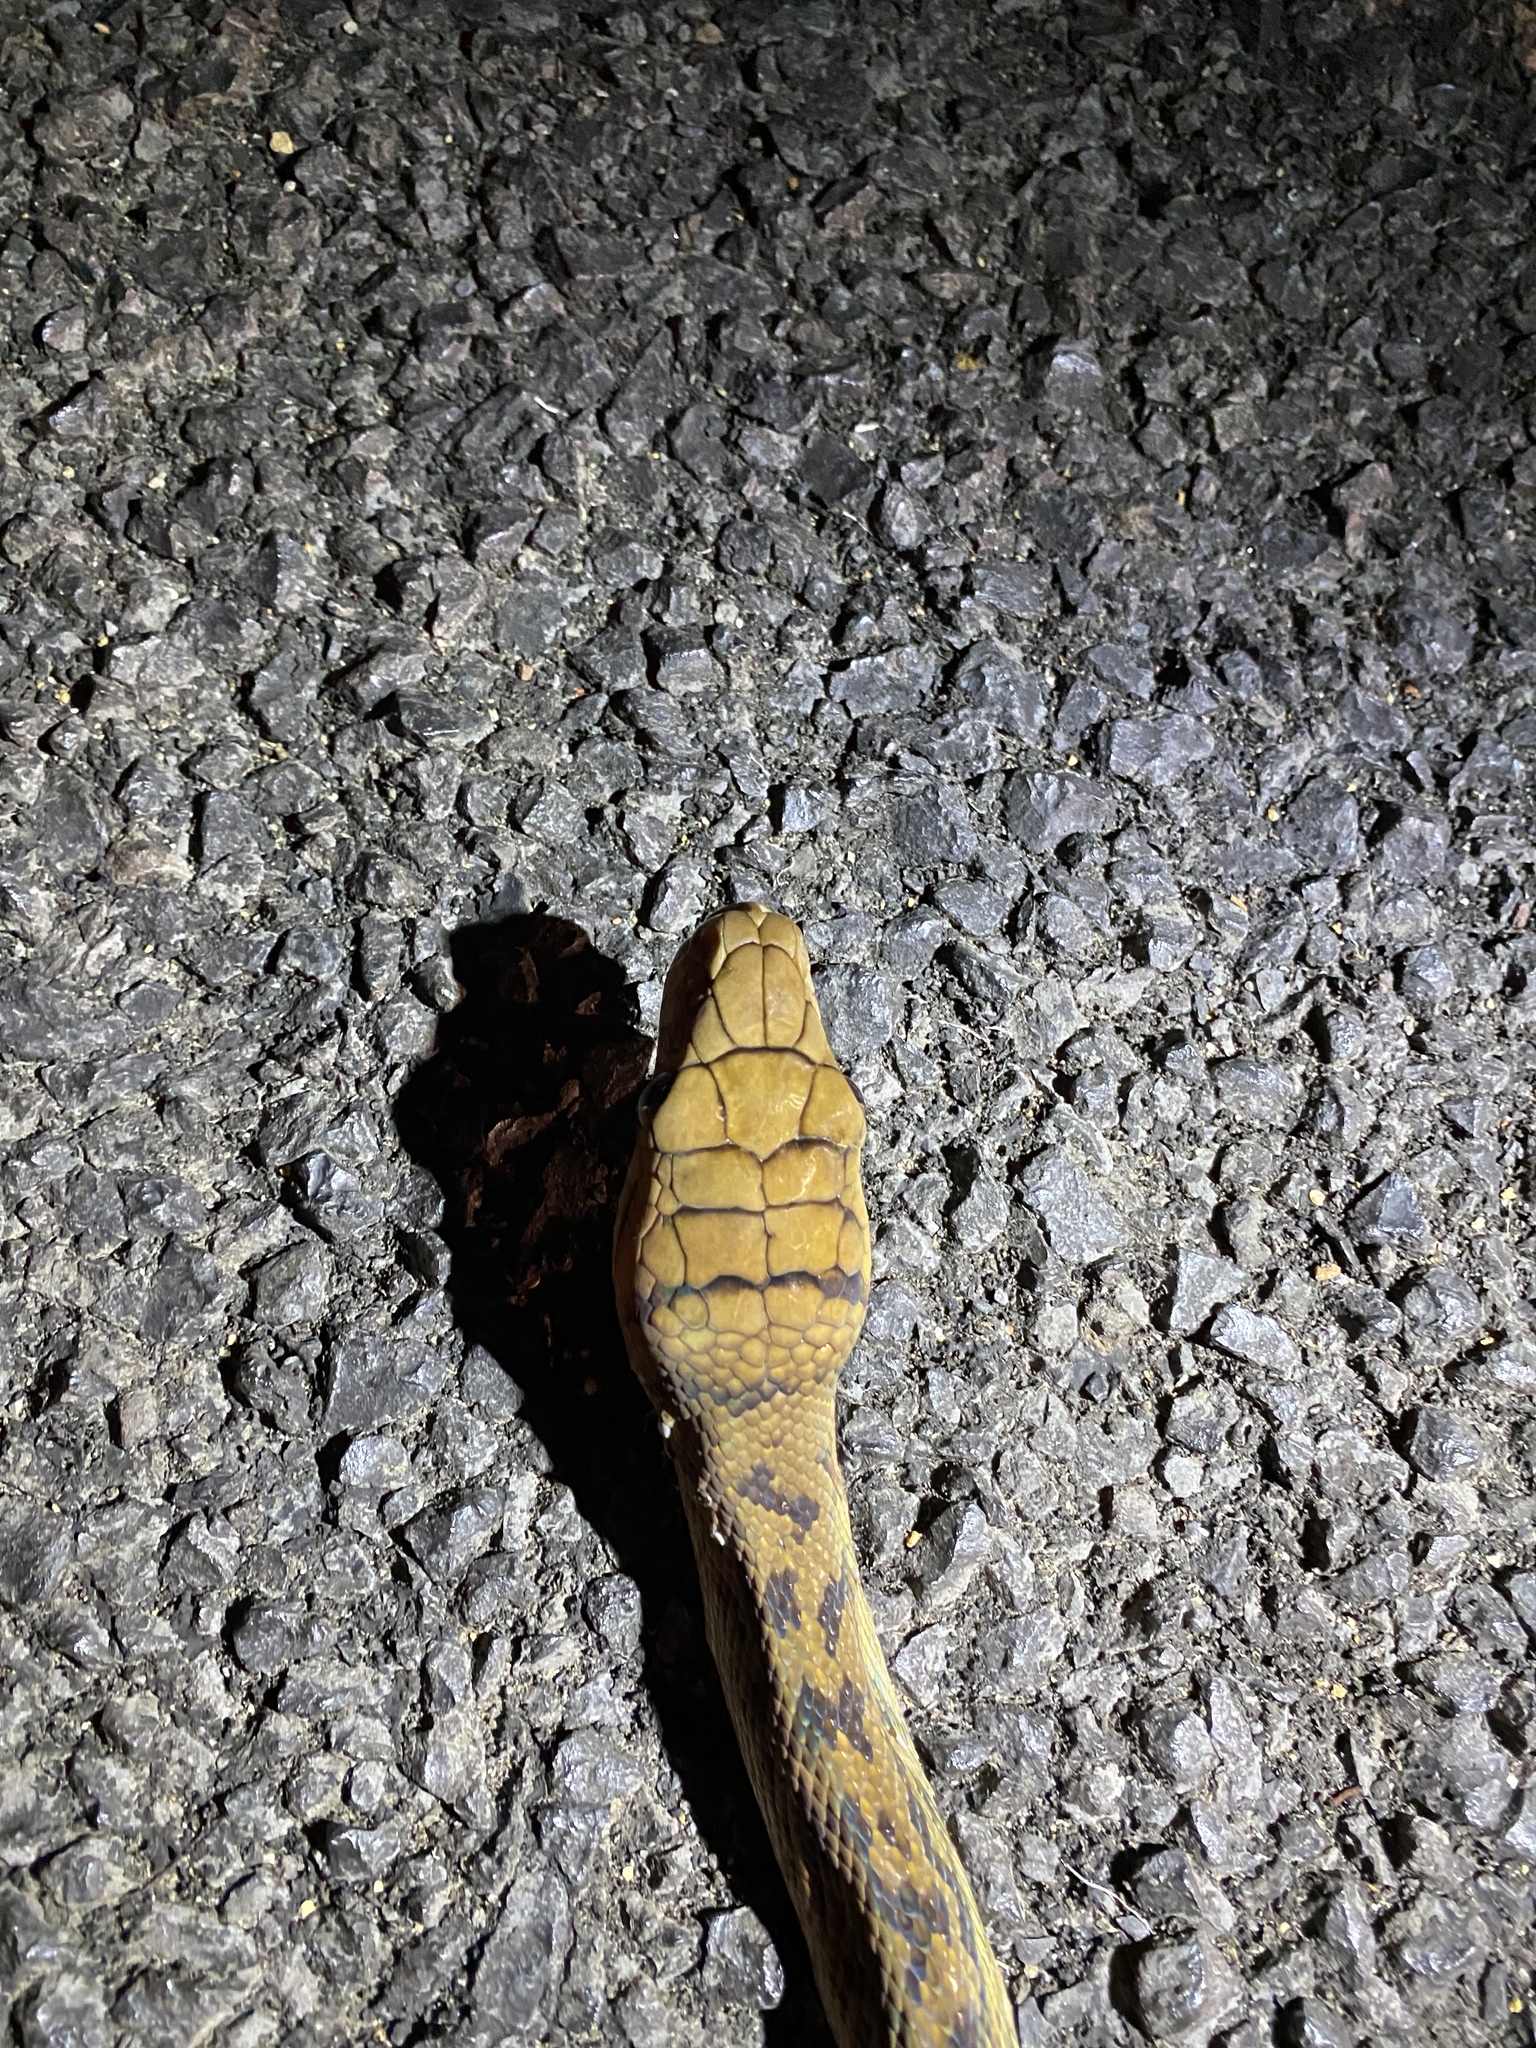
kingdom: Animalia
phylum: Chordata
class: Squamata
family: Pythonidae
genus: Simalia
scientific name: Simalia kinghorni
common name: Scrub python
